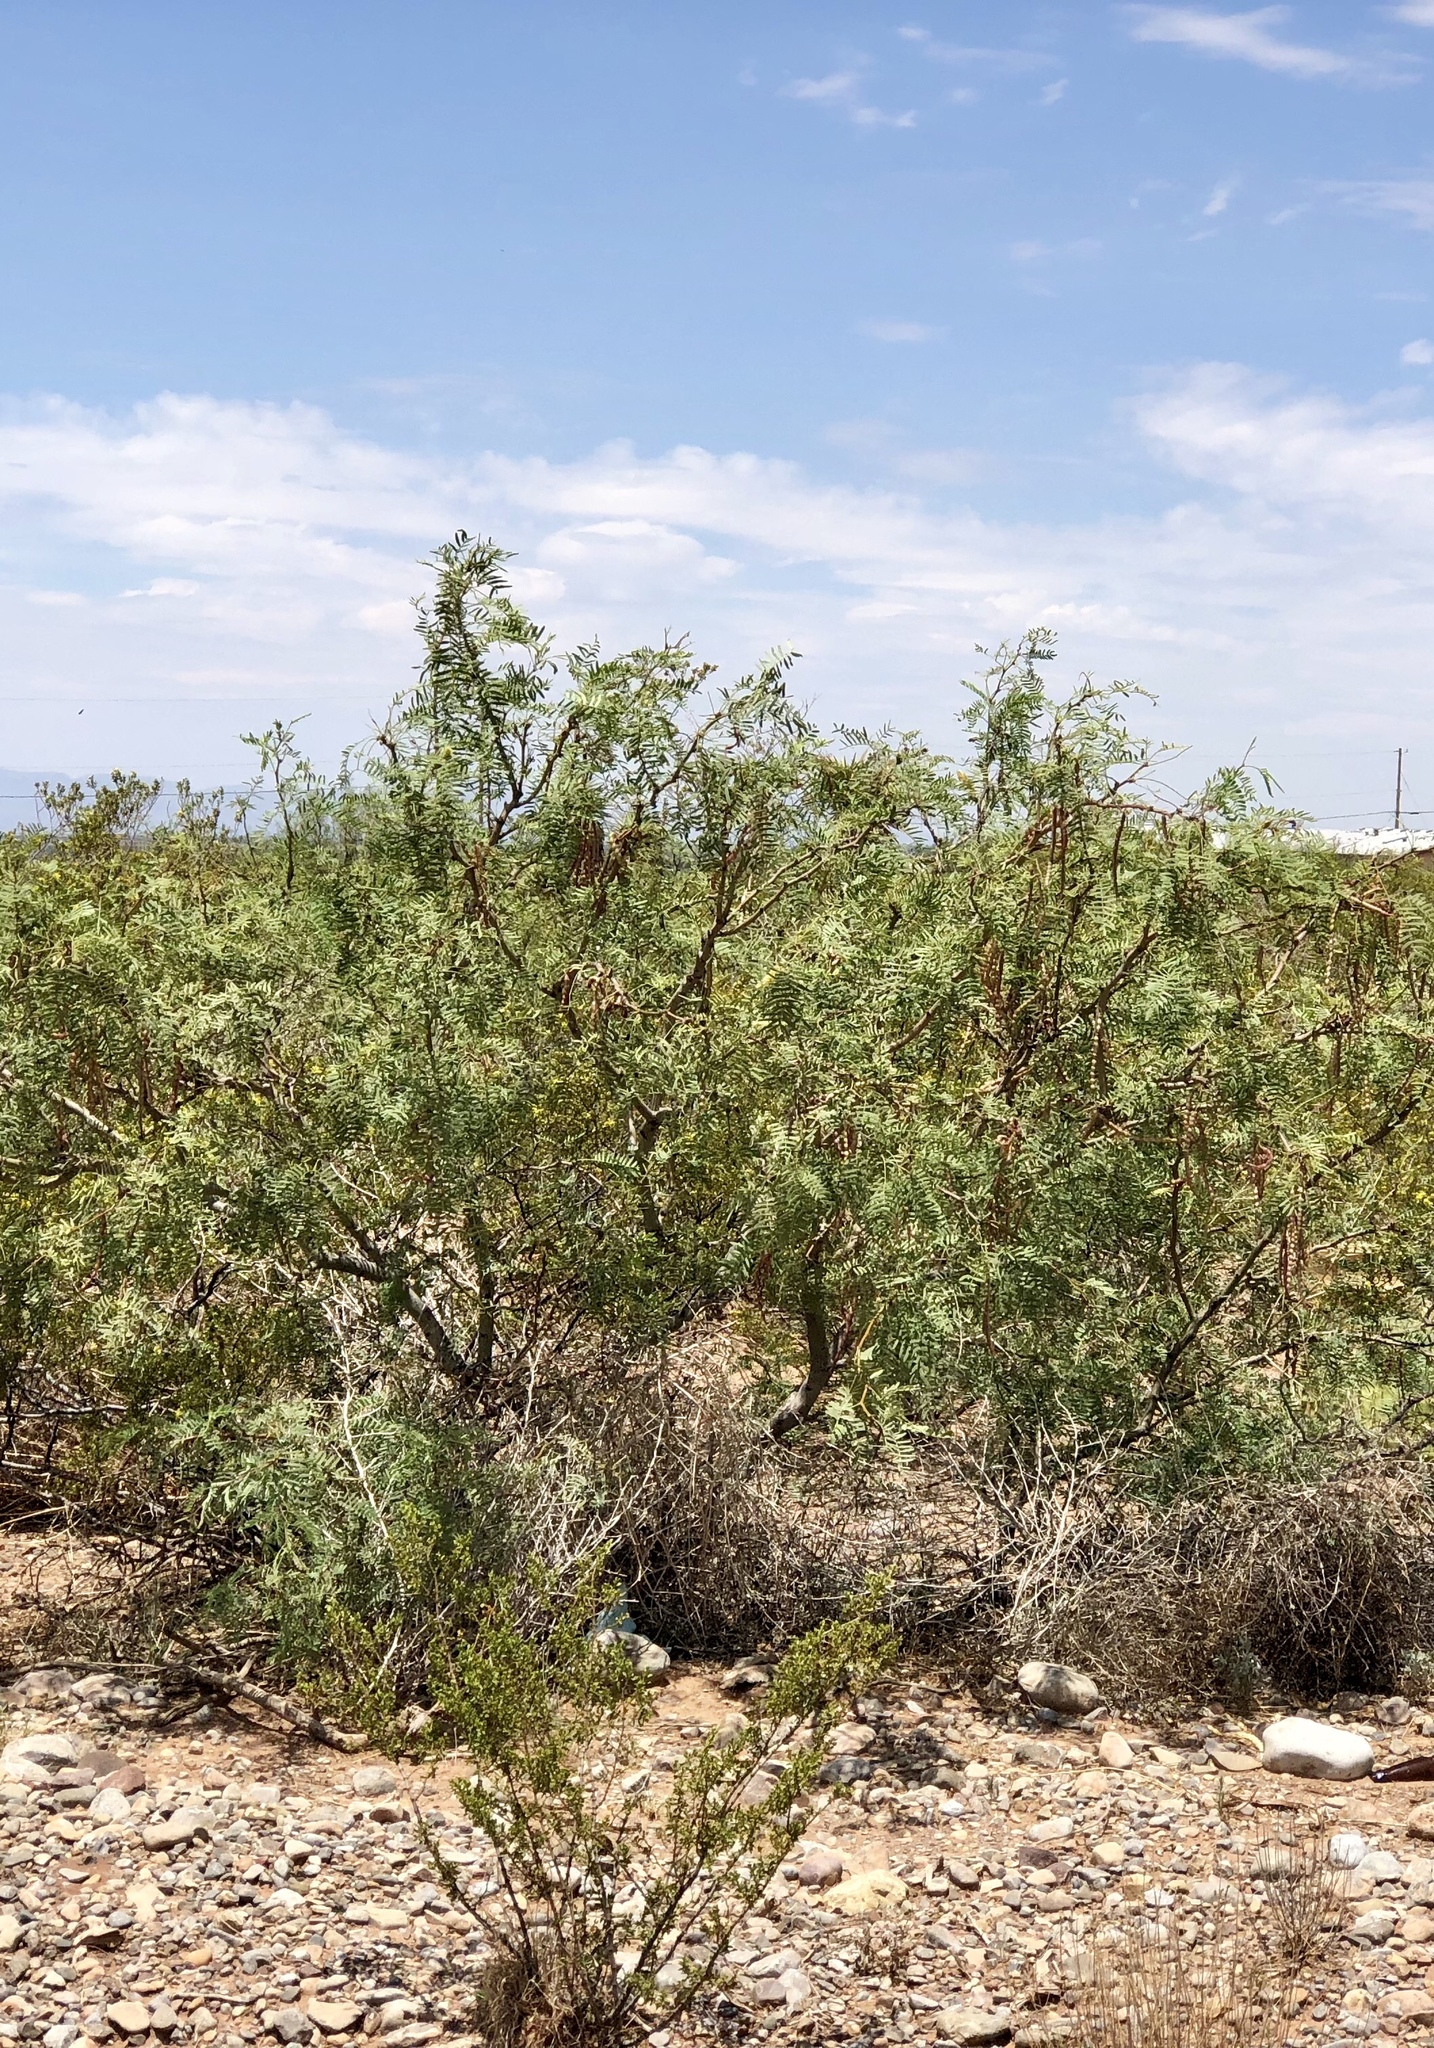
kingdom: Plantae
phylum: Tracheophyta
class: Magnoliopsida
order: Fabales
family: Fabaceae
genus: Prosopis
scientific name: Prosopis glandulosa
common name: Honey mesquite
